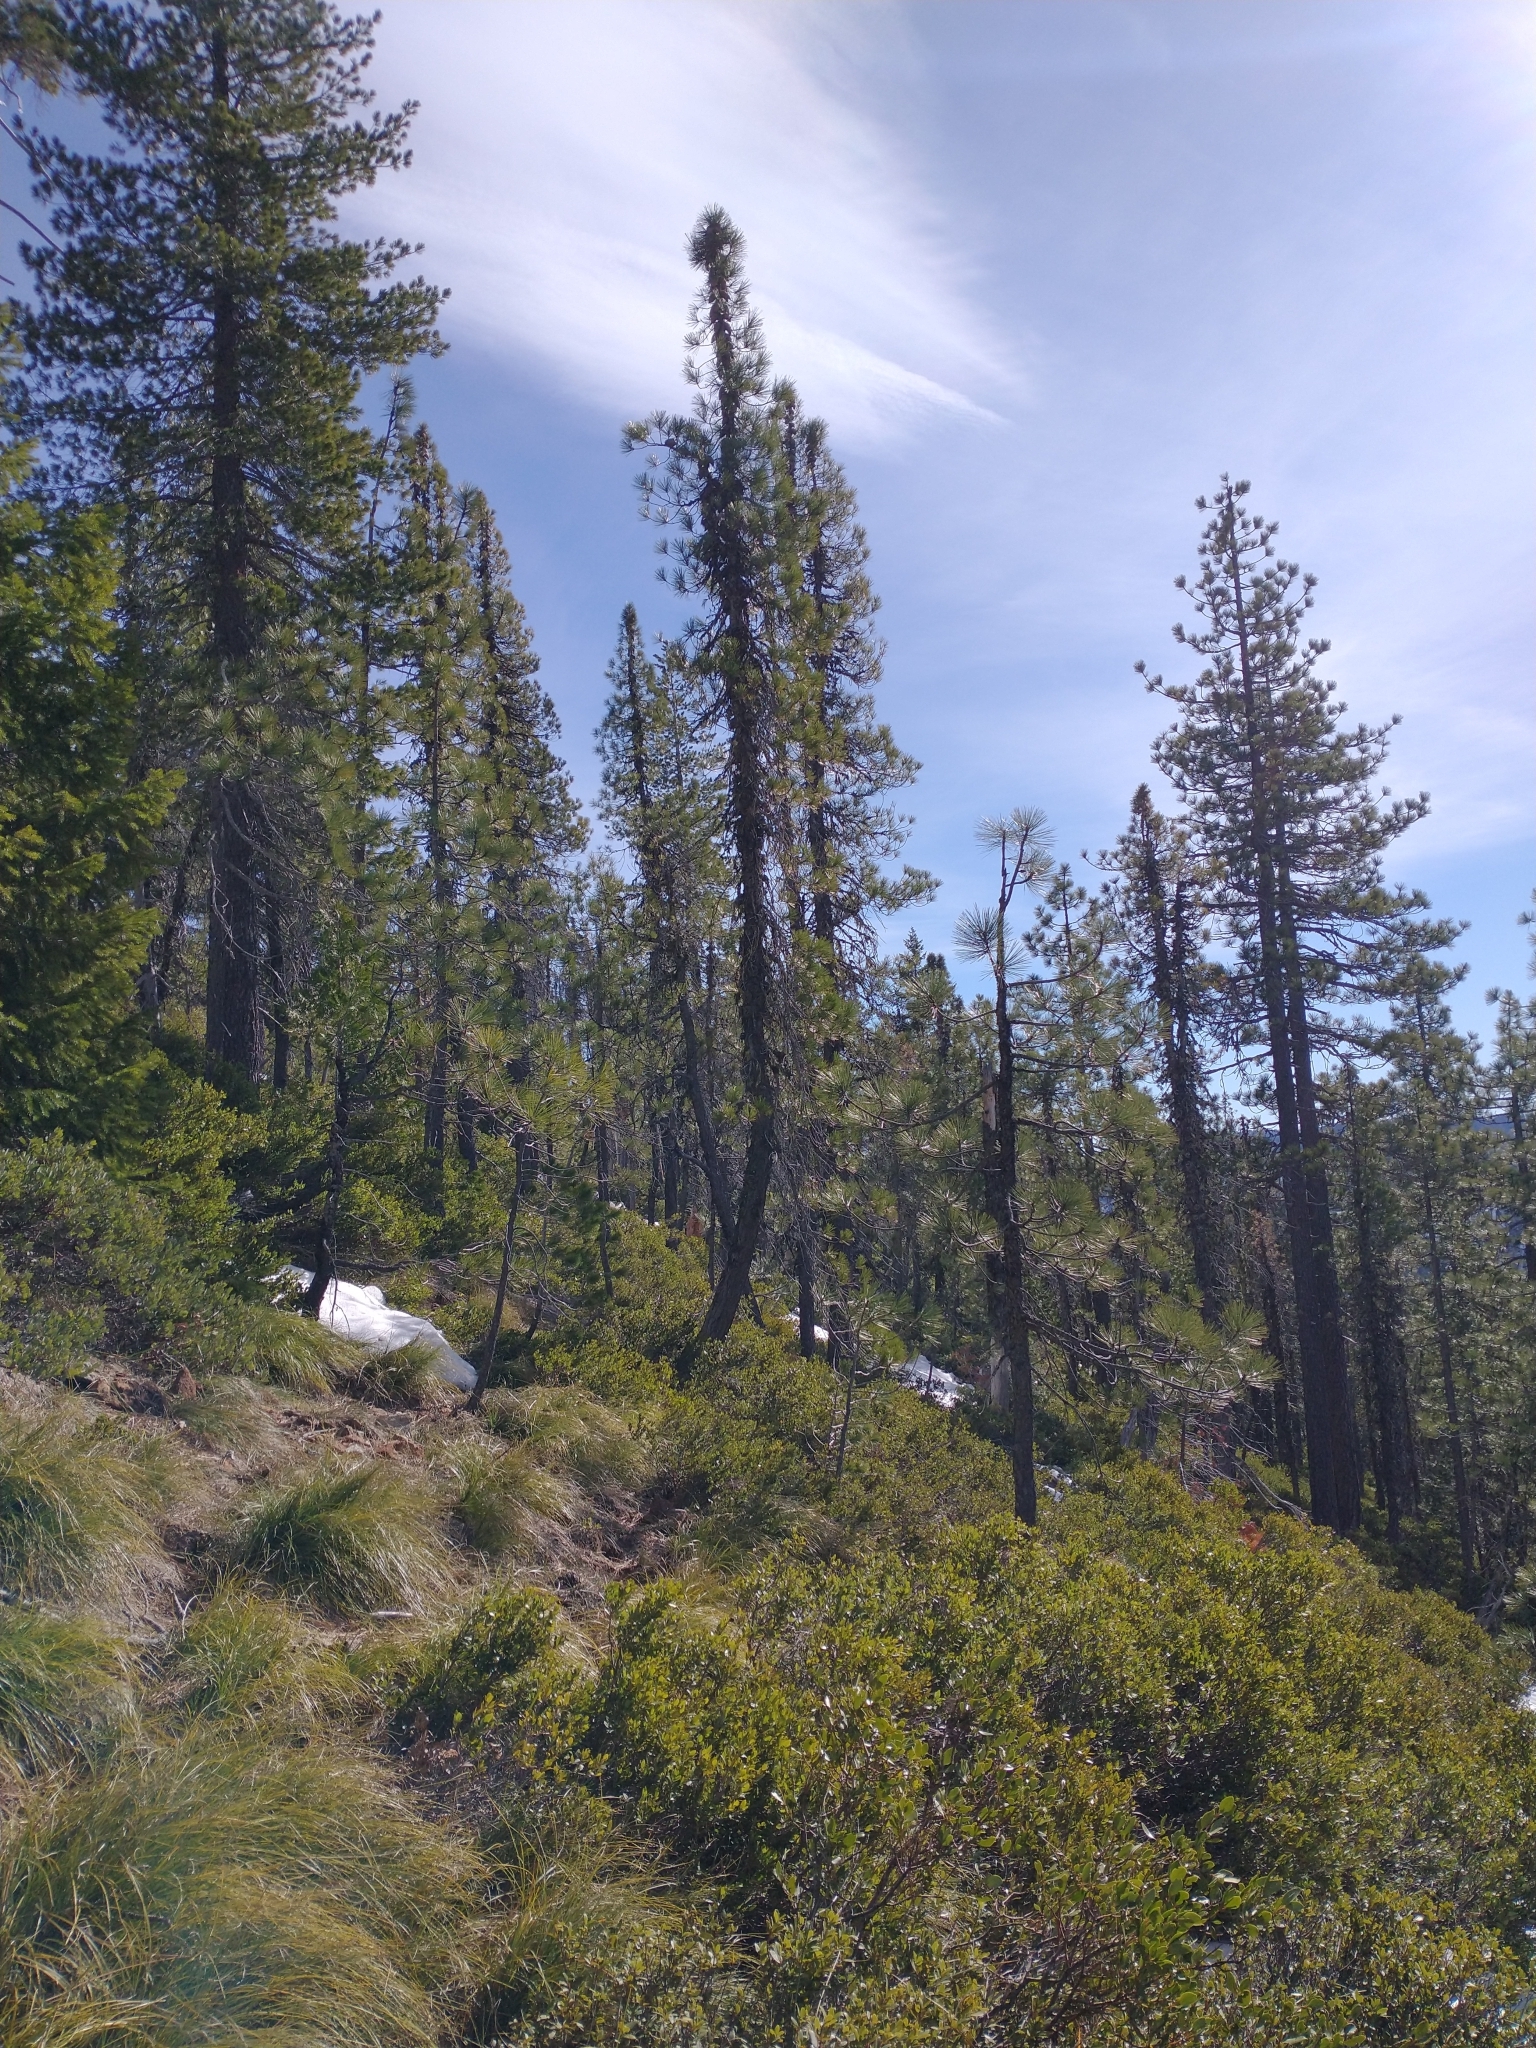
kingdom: Plantae
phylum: Tracheophyta
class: Pinopsida
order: Pinales
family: Pinaceae
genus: Pinus
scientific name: Pinus attenuata
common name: Knobcone pine
